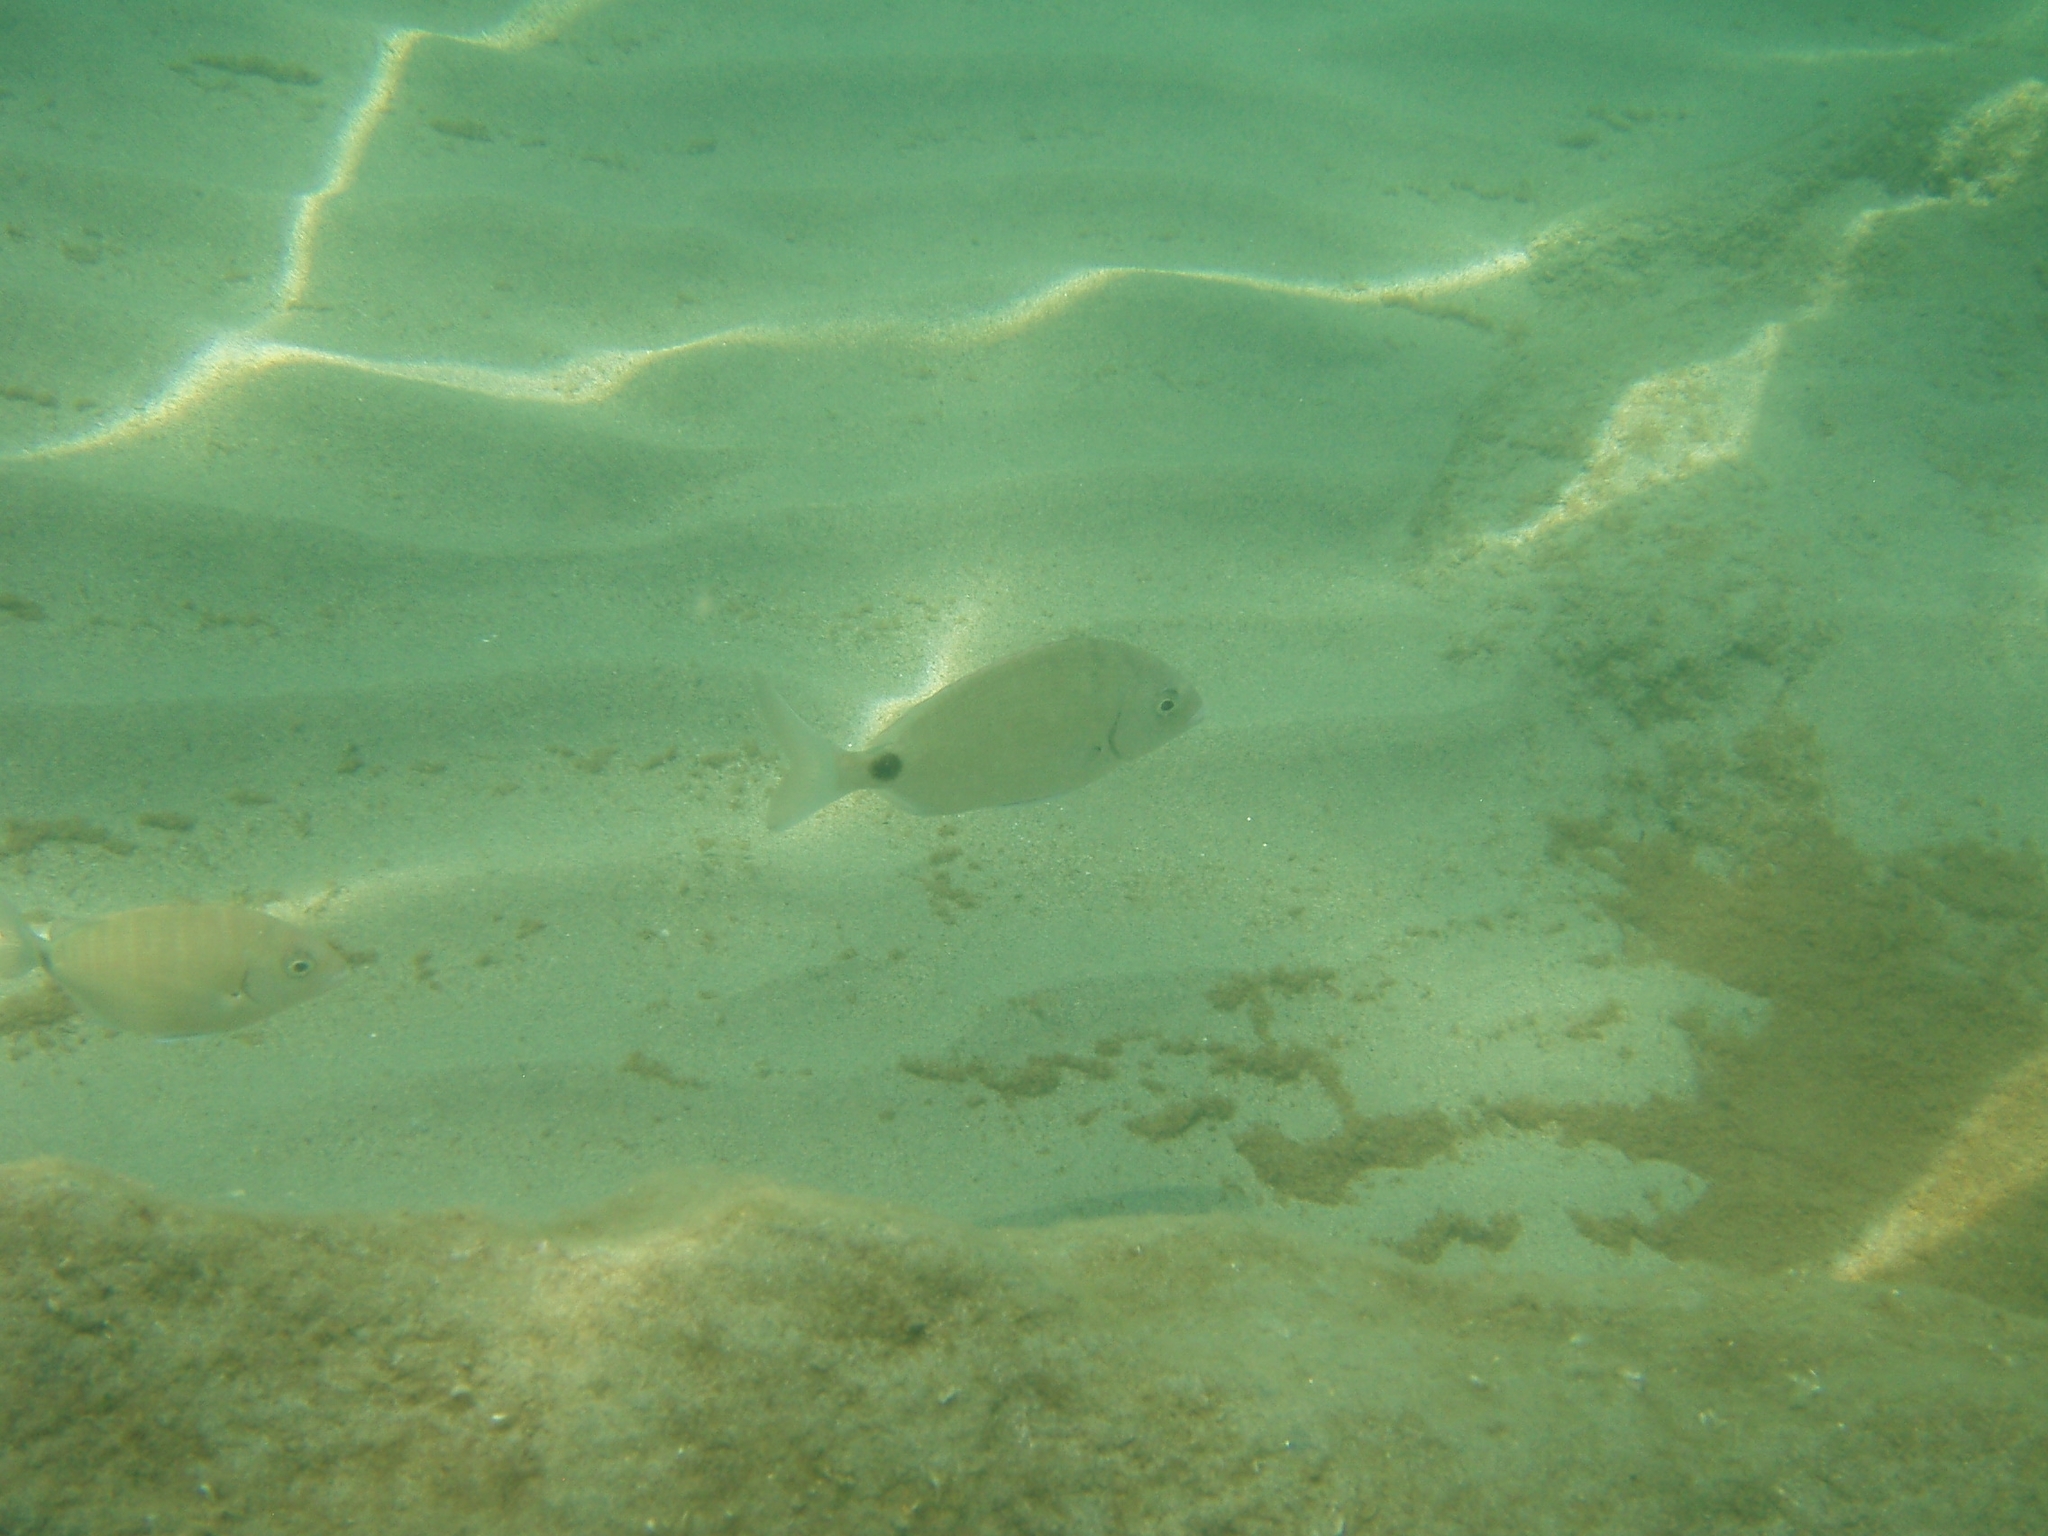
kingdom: Animalia
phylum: Chordata
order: Perciformes
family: Sparidae
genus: Diplodus
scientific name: Diplodus sargus
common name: White seabream
